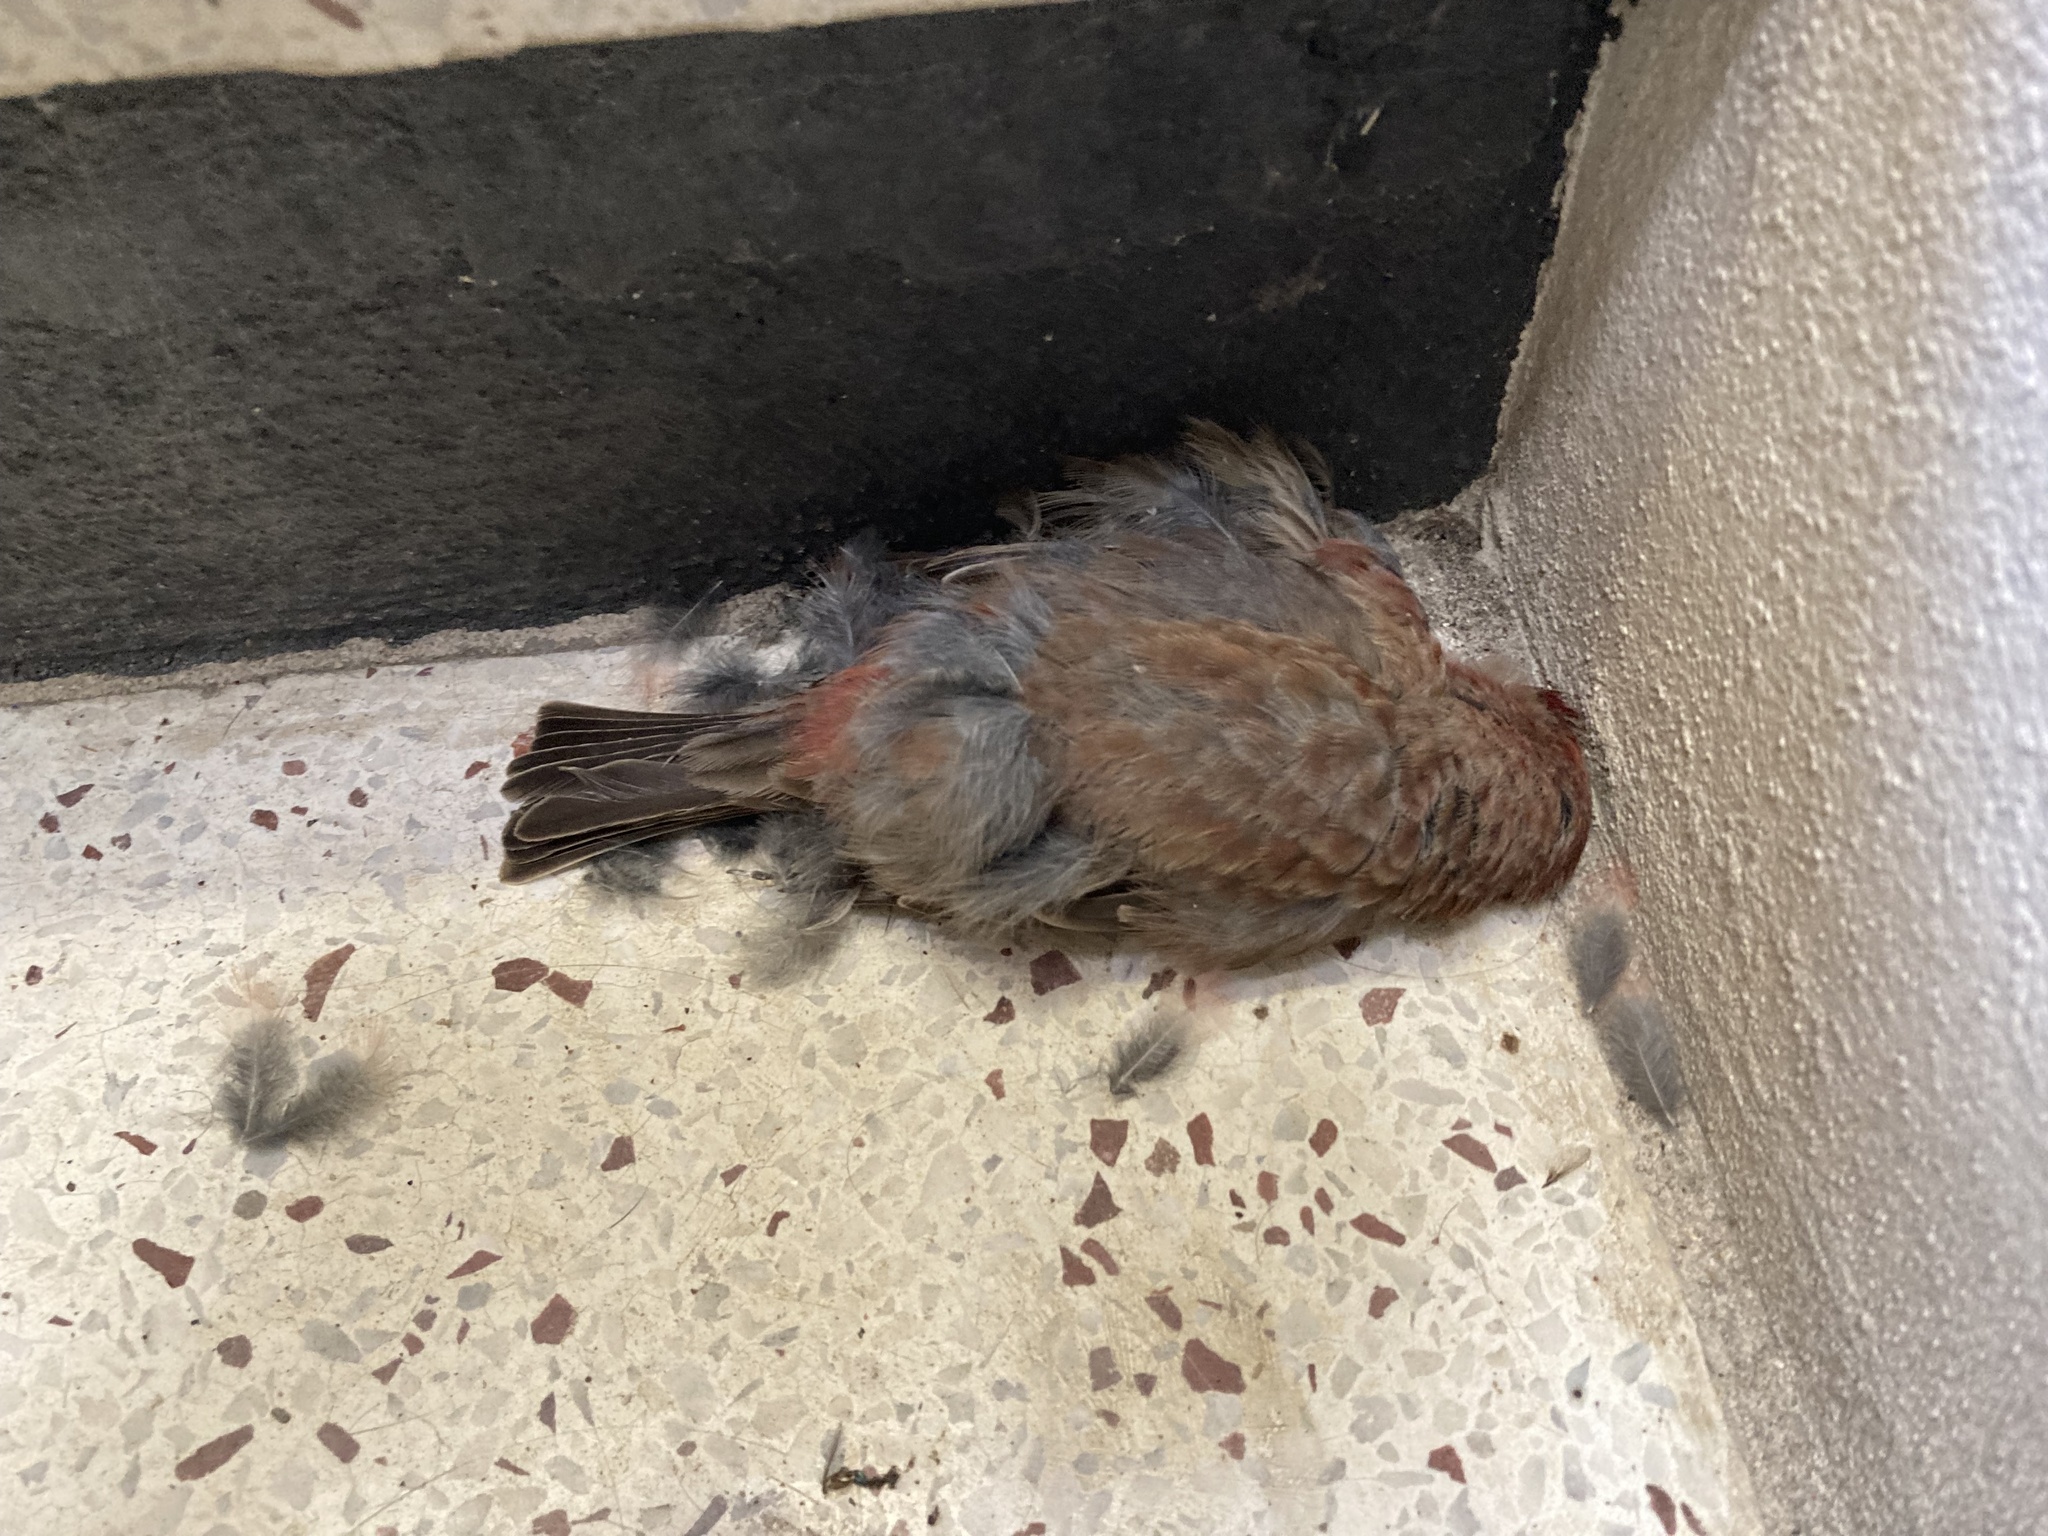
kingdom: Animalia
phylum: Chordata
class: Aves
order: Passeriformes
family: Fringillidae
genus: Haemorhous
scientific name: Haemorhous mexicanus
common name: House finch
